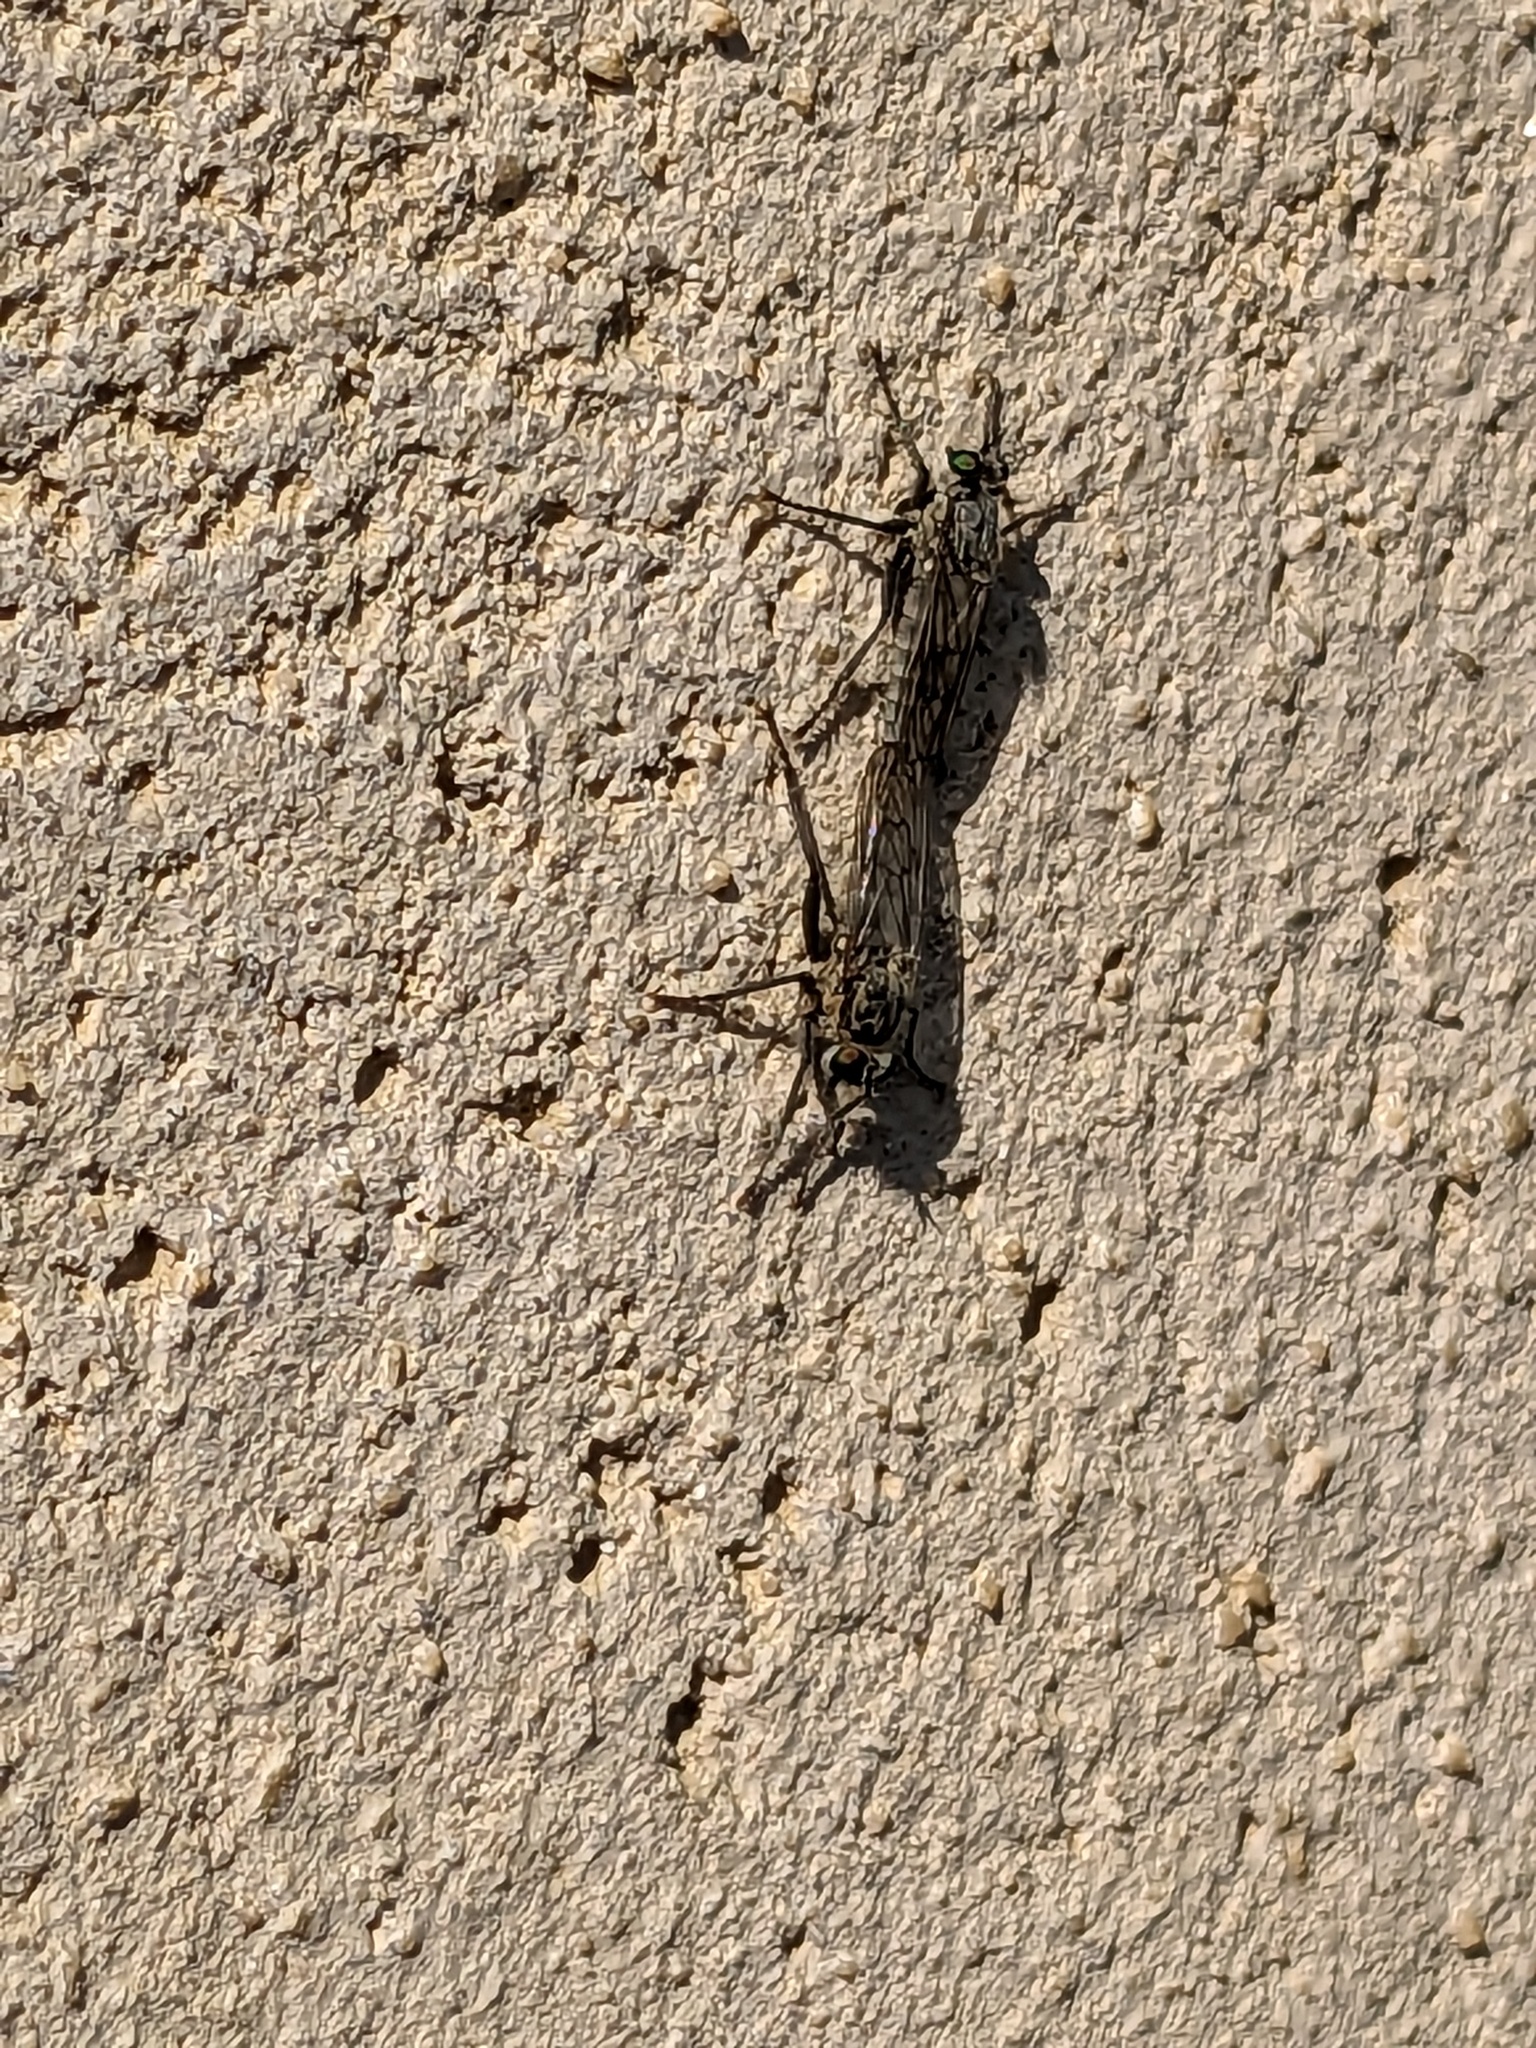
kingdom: Animalia
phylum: Arthropoda
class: Insecta
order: Diptera
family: Asilidae
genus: Lasiopogon
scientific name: Lasiopogon quadrivittatus
